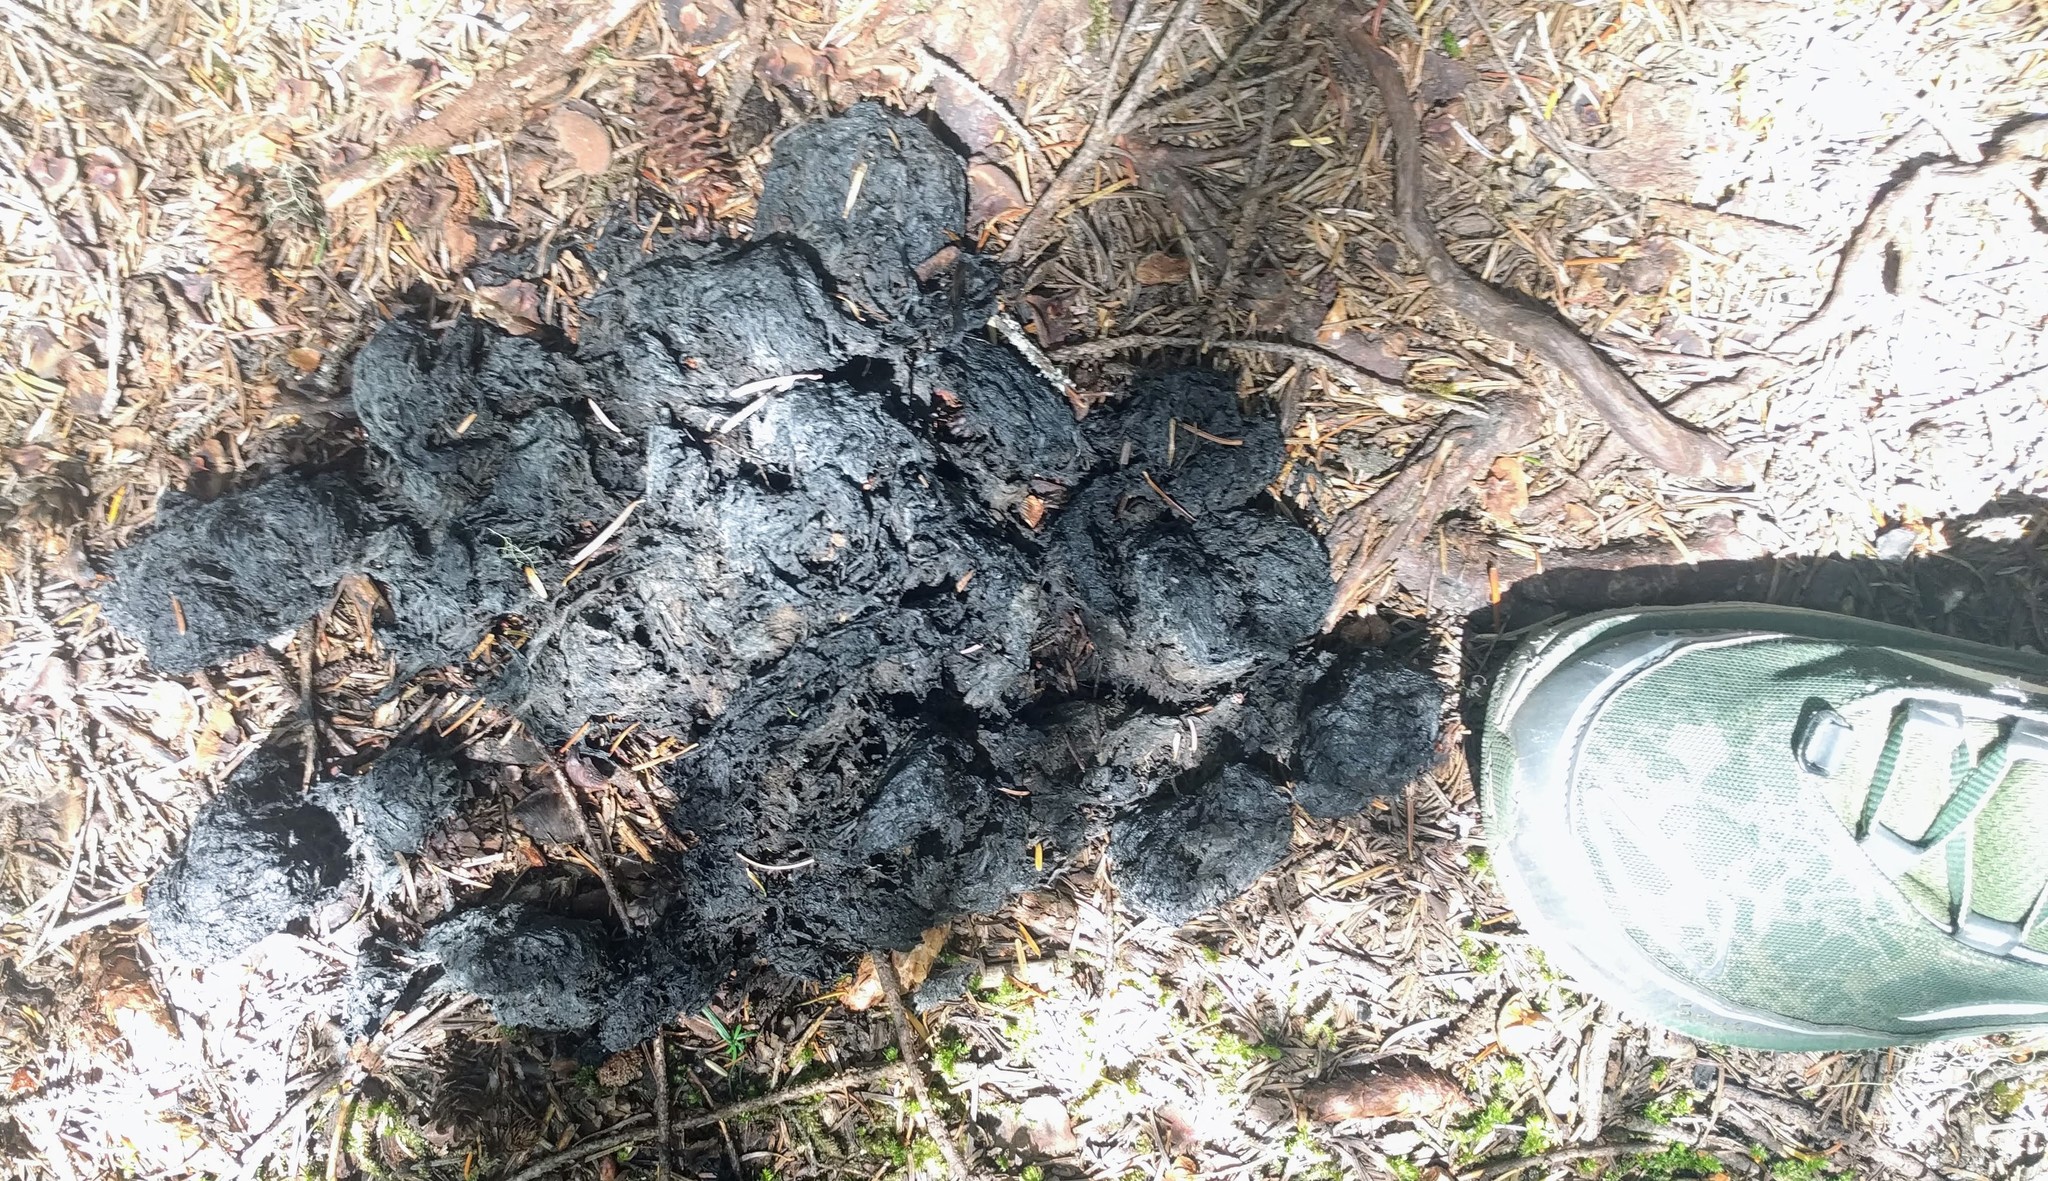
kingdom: Animalia
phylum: Chordata
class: Mammalia
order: Carnivora
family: Ursidae
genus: Ursus
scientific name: Ursus americanus
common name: American black bear
